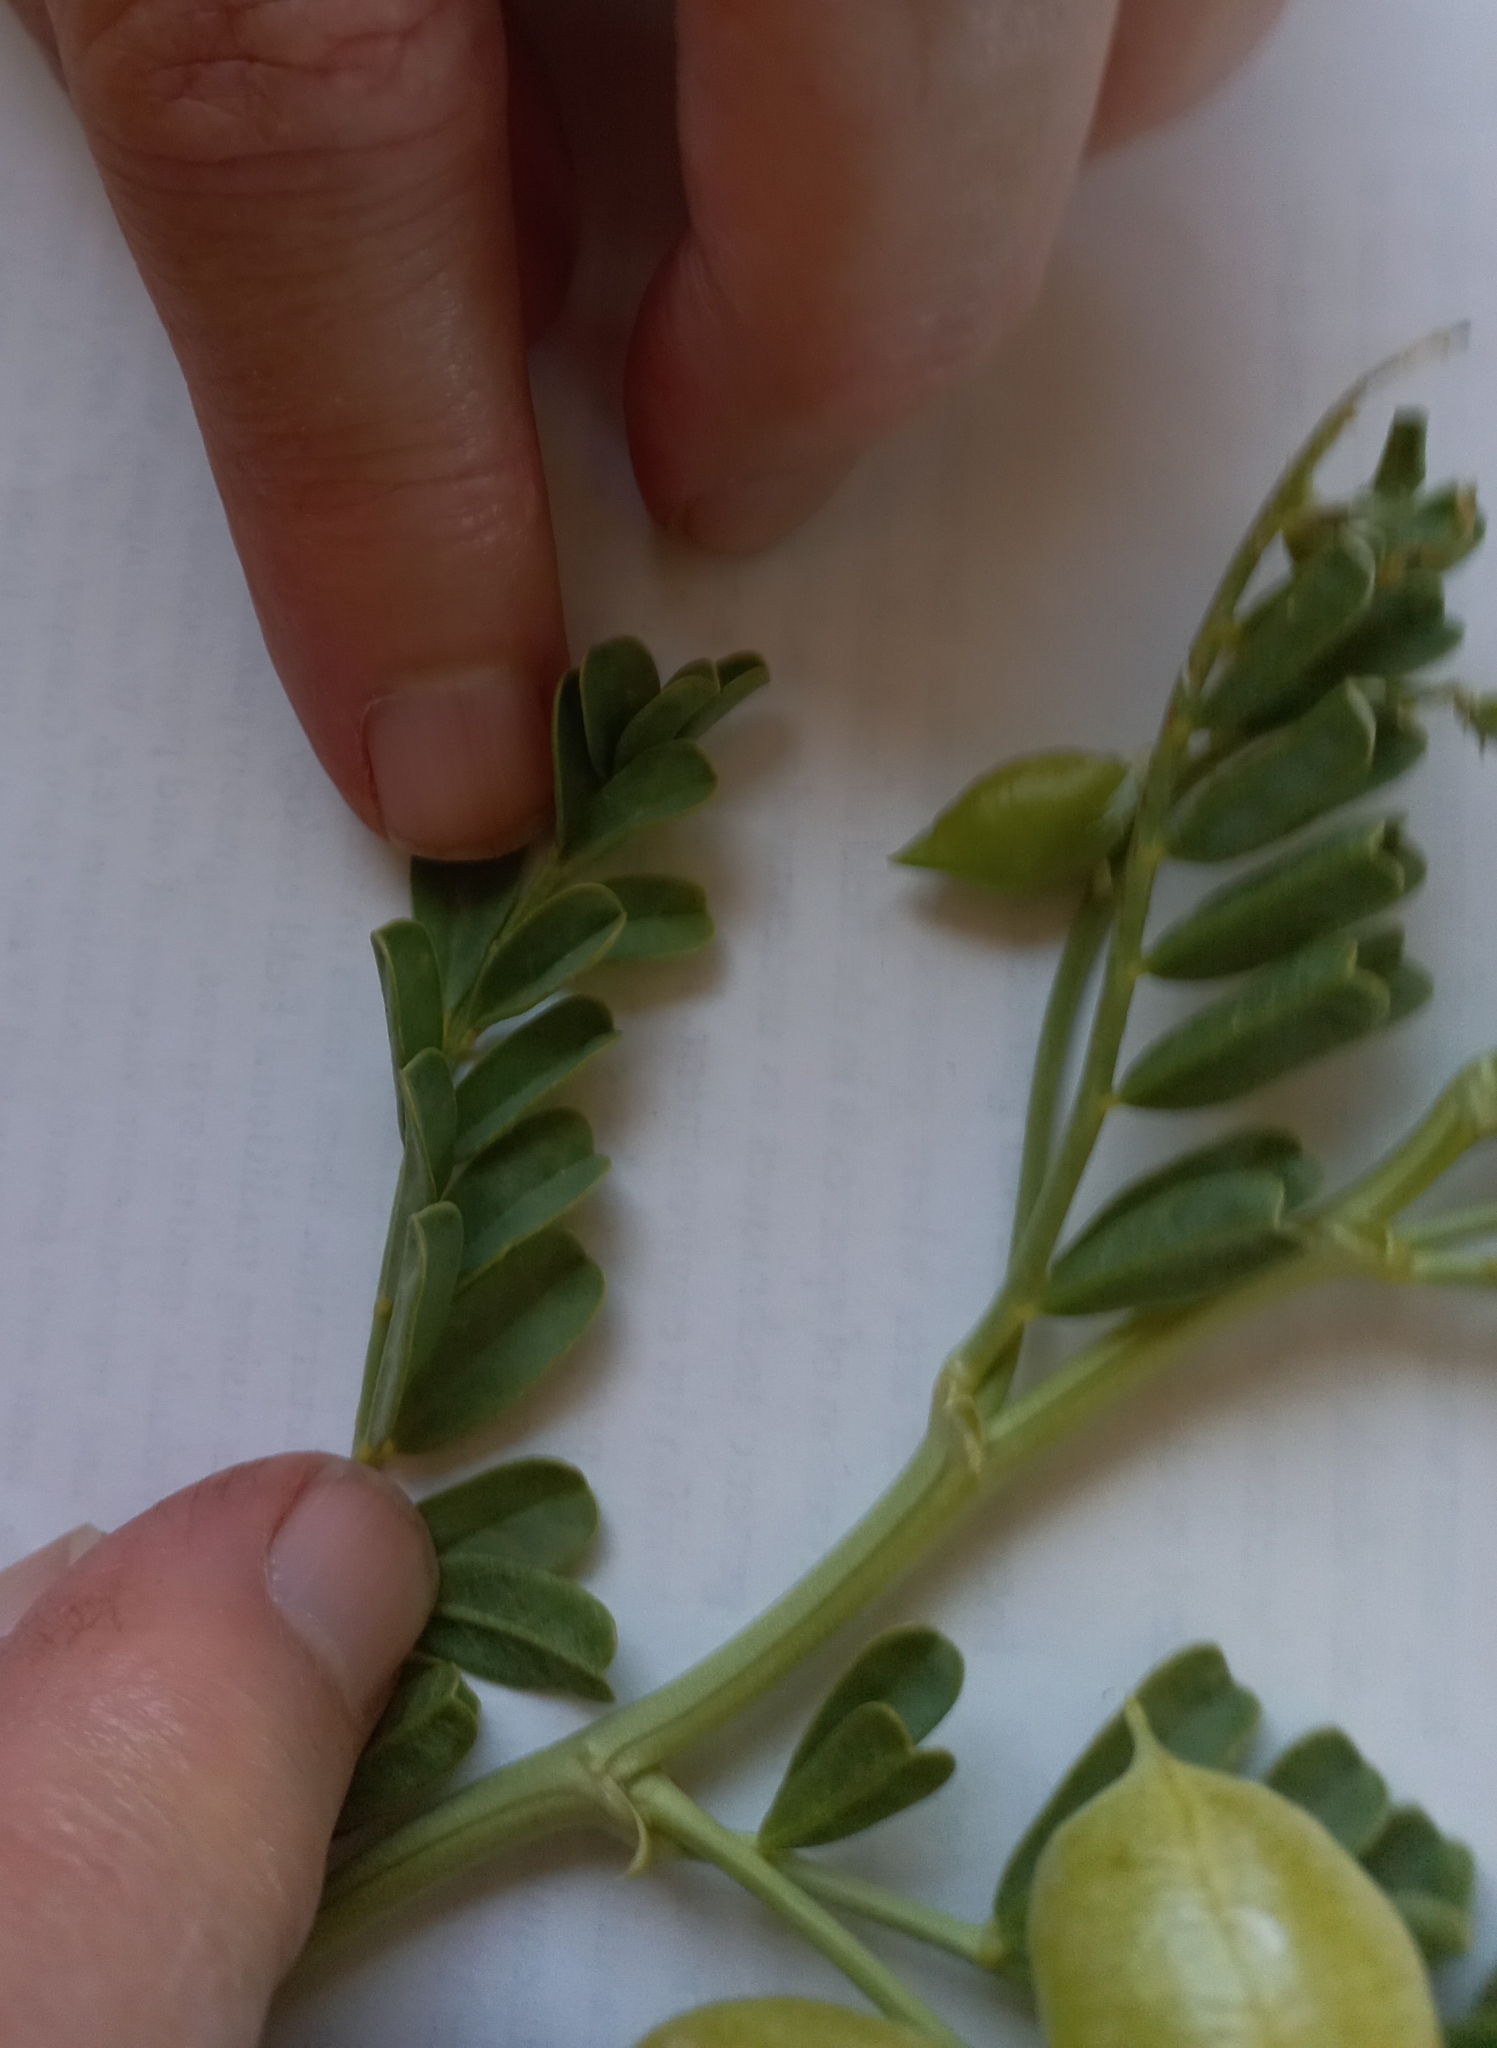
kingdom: Plantae
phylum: Tracheophyta
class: Magnoliopsida
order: Fabales
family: Fabaceae
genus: Astragalus
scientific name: Astragalus pehuenches
